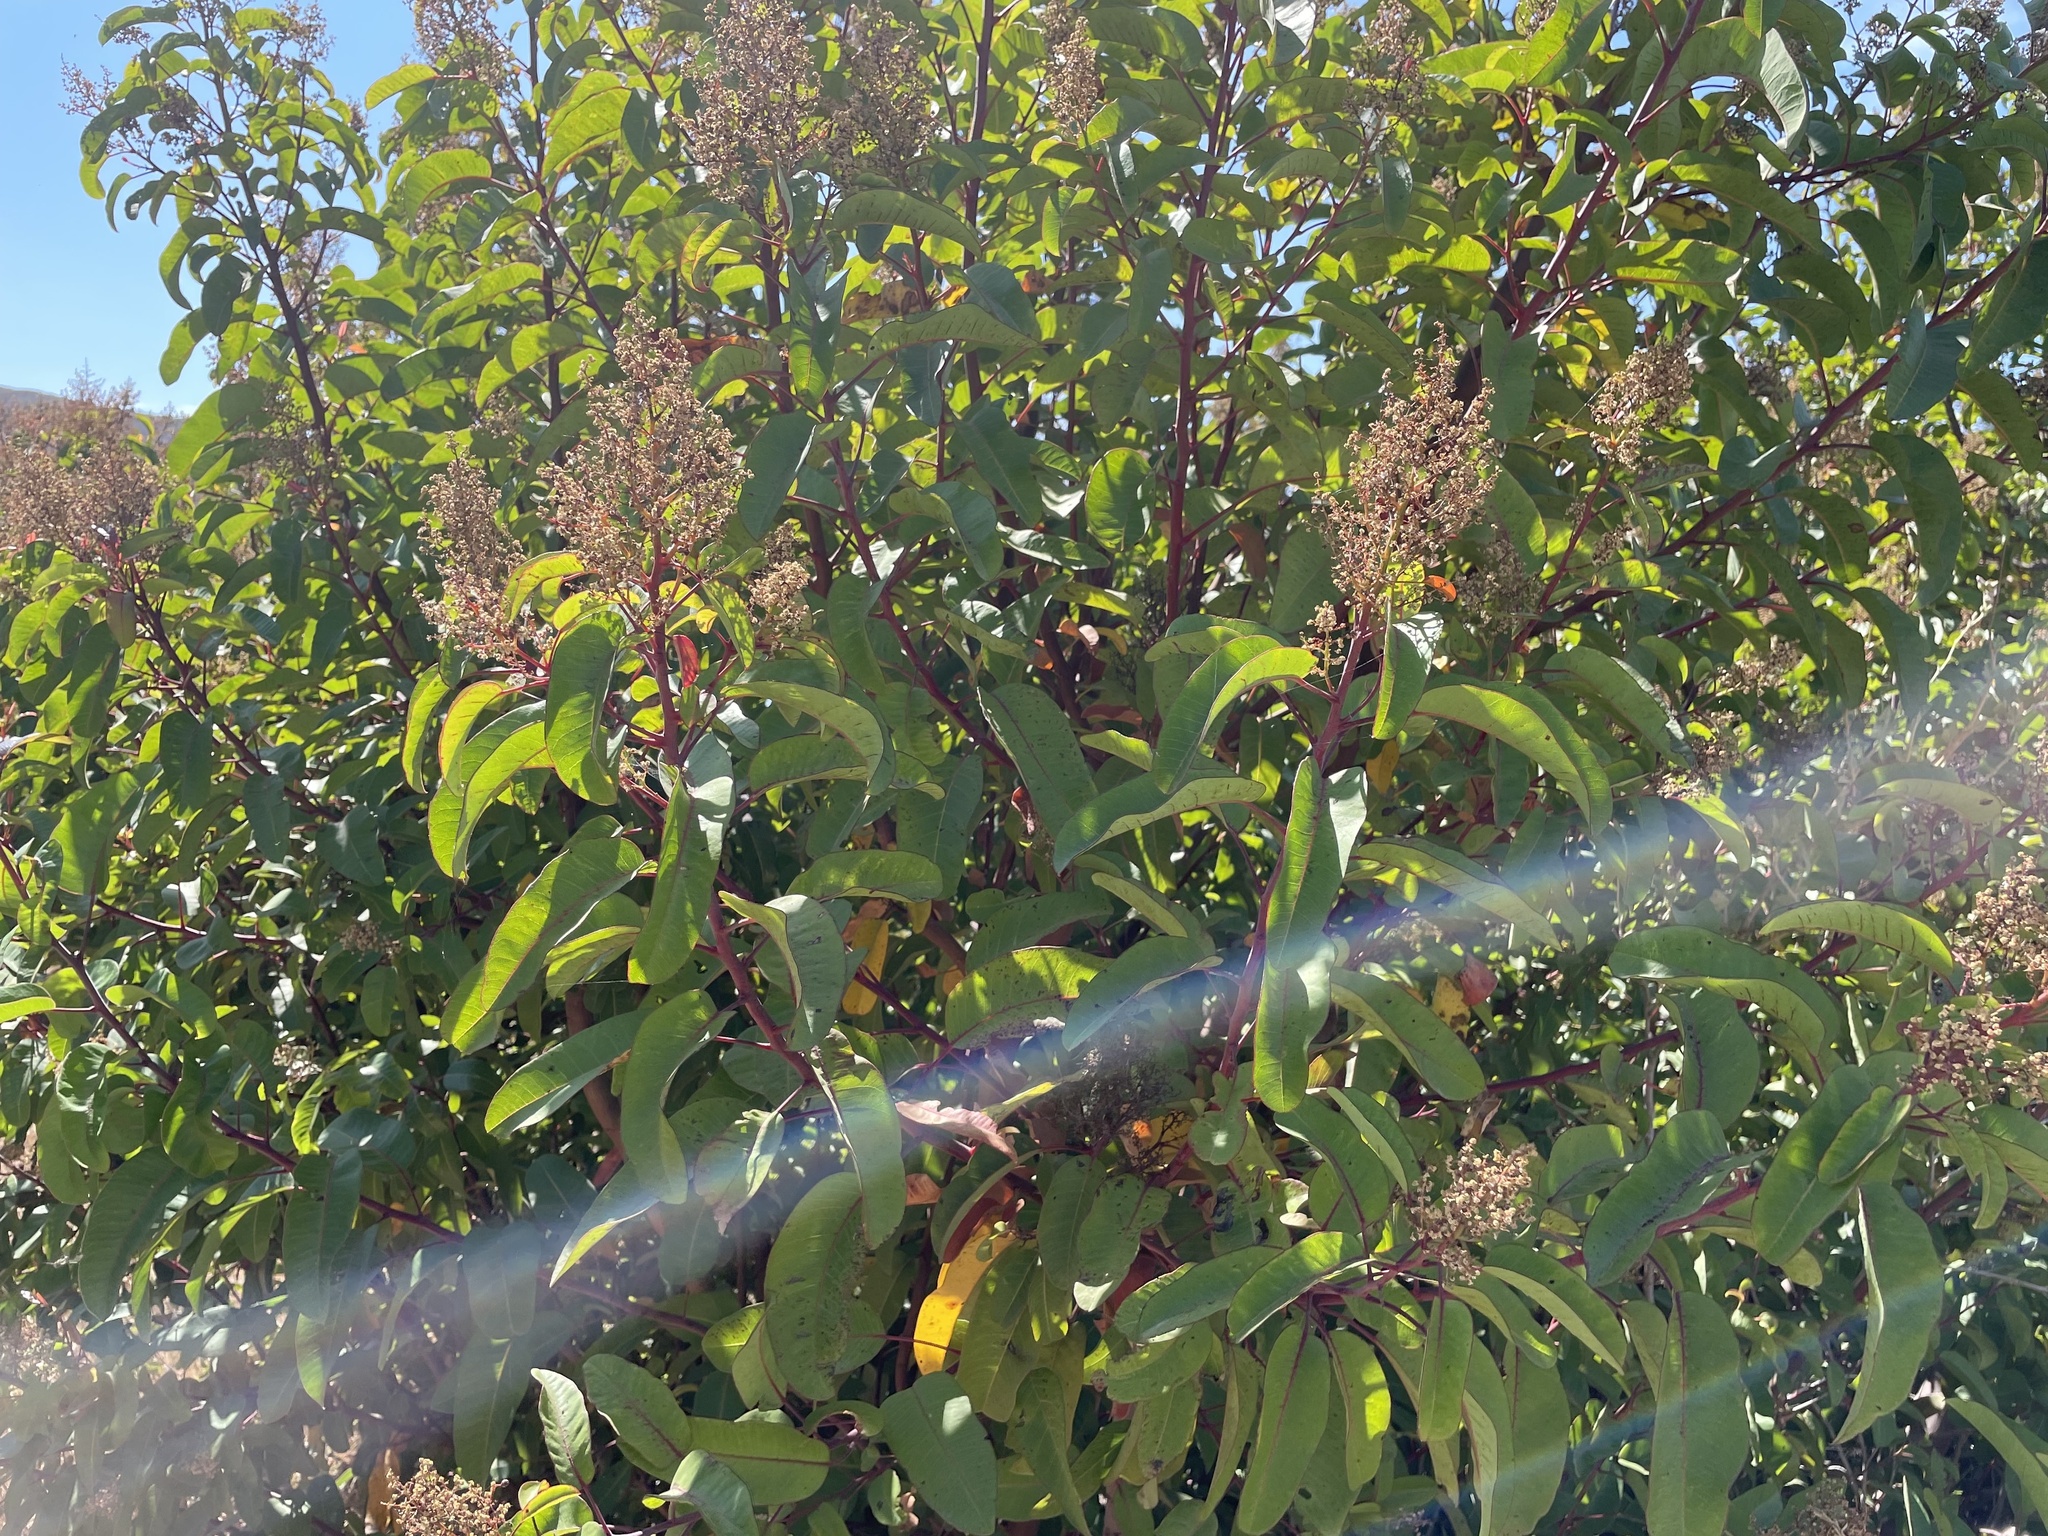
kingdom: Plantae
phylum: Tracheophyta
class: Magnoliopsida
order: Sapindales
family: Anacardiaceae
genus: Malosma
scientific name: Malosma laurina
